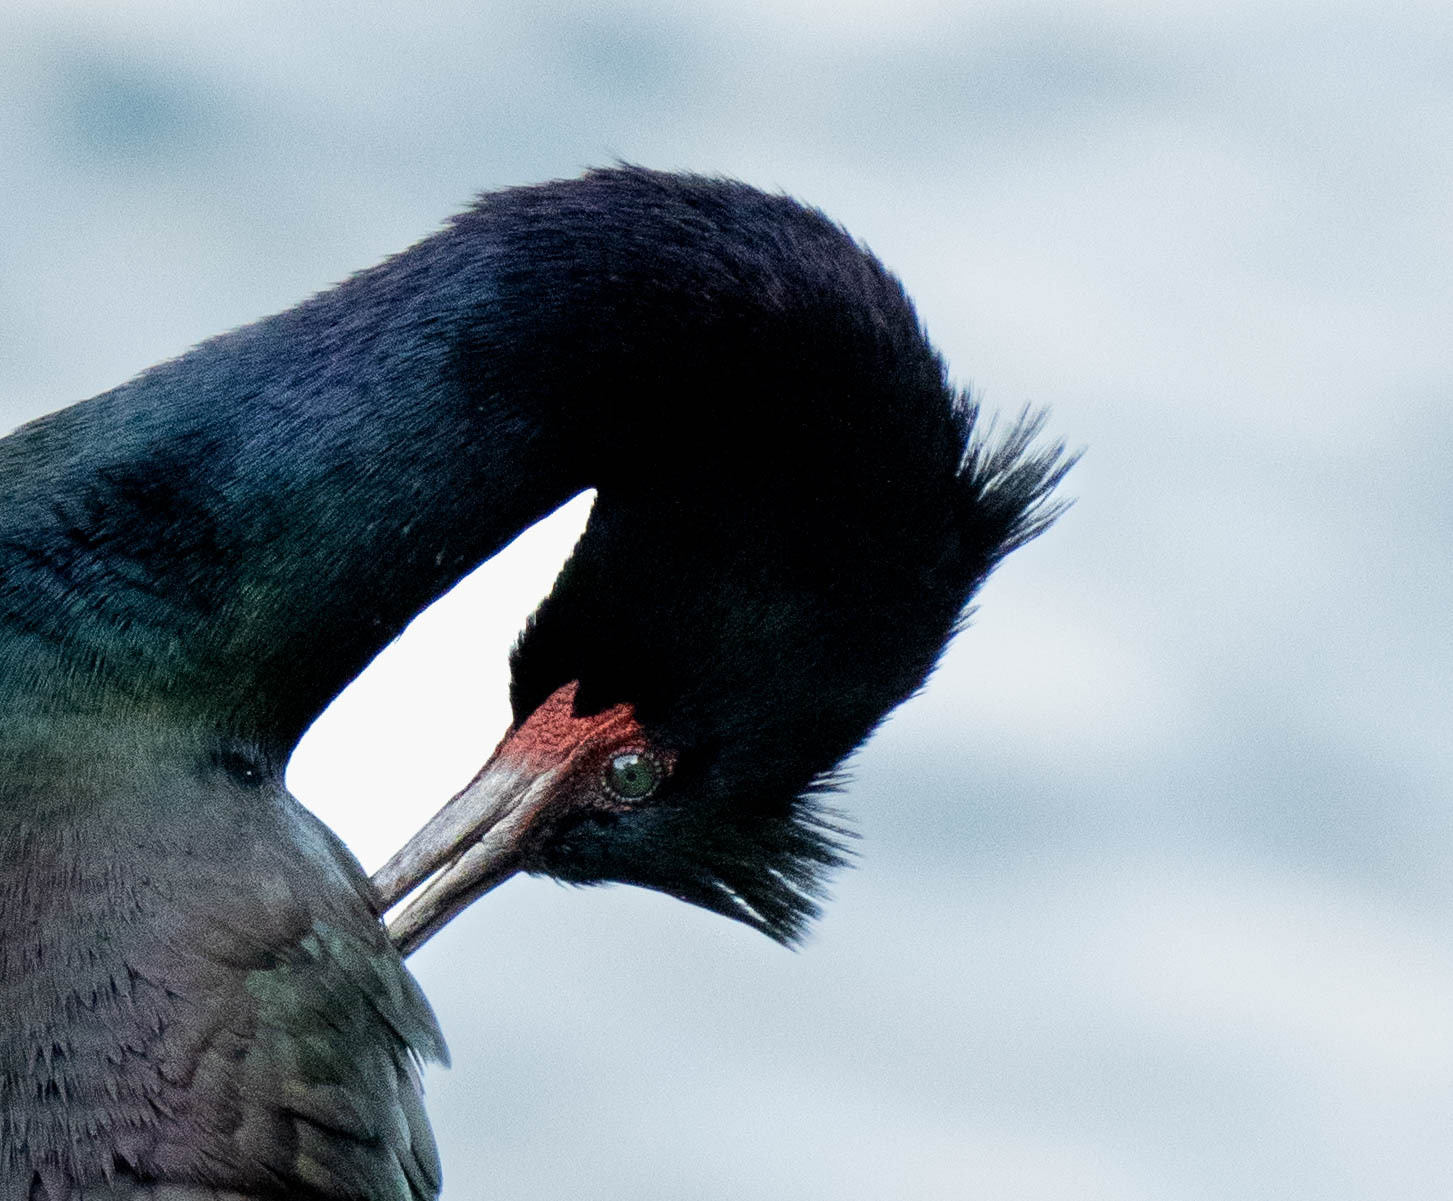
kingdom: Animalia
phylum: Chordata
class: Aves
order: Suliformes
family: Phalacrocoracidae
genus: Phalacrocorax
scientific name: Phalacrocorax pelagicus
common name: Pelagic cormorant
